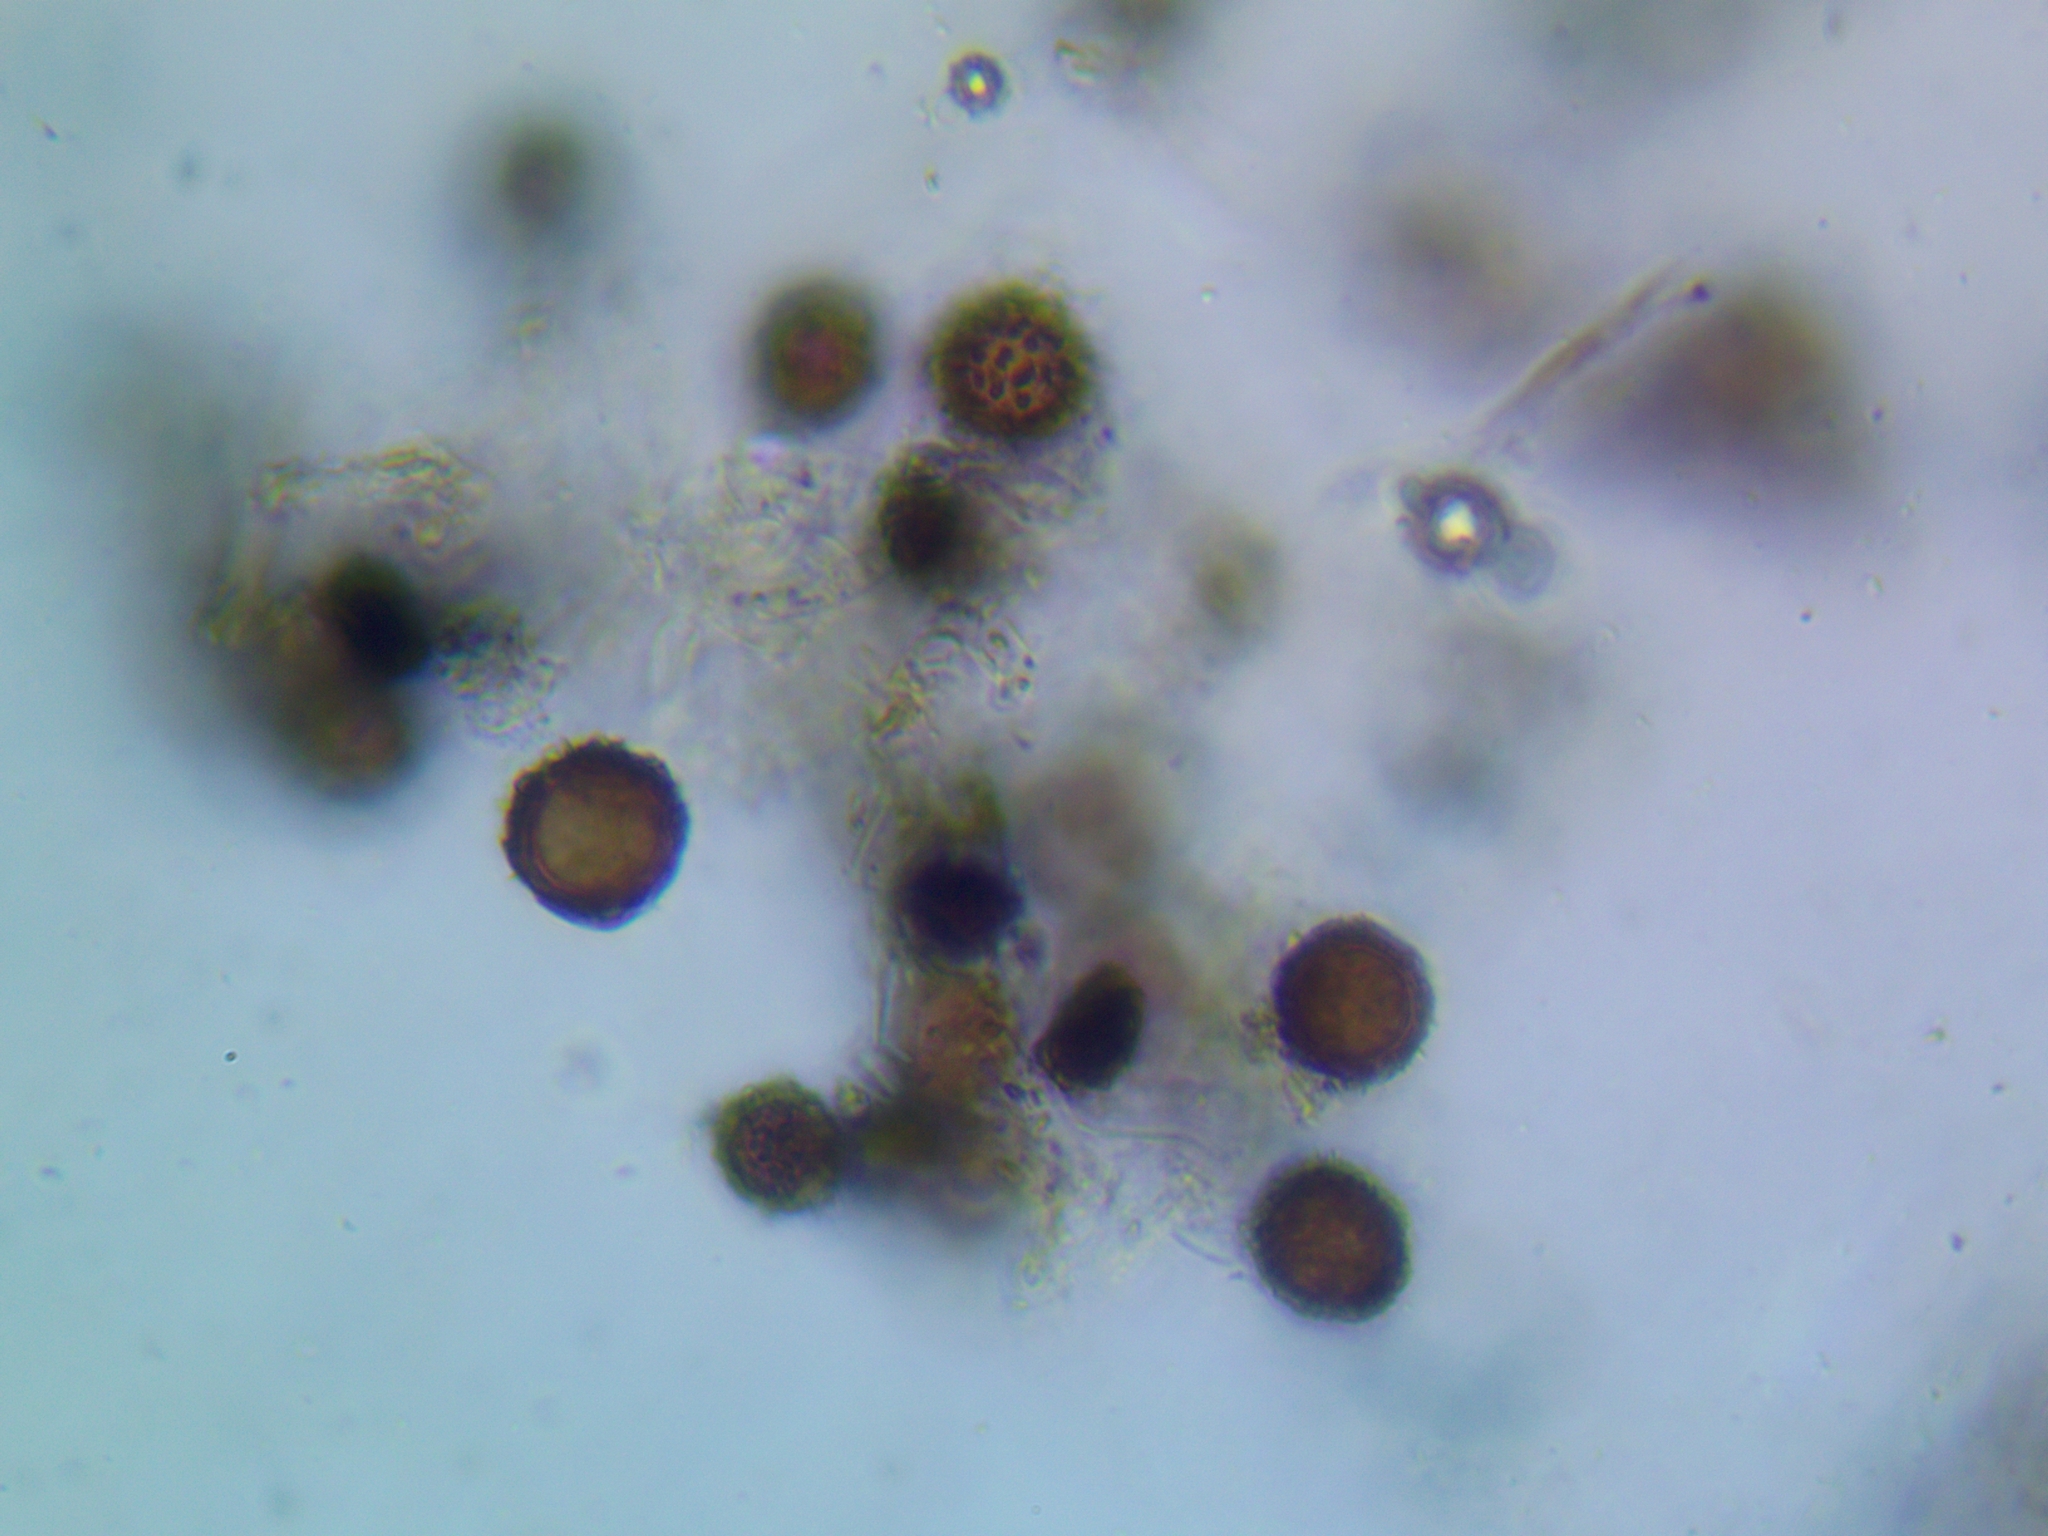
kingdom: Fungi
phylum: Basidiomycota
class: Agaricomycetes
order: Boletales
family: Sclerodermataceae
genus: Scleroderma
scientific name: Scleroderma areolatum
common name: Leopard earthball
